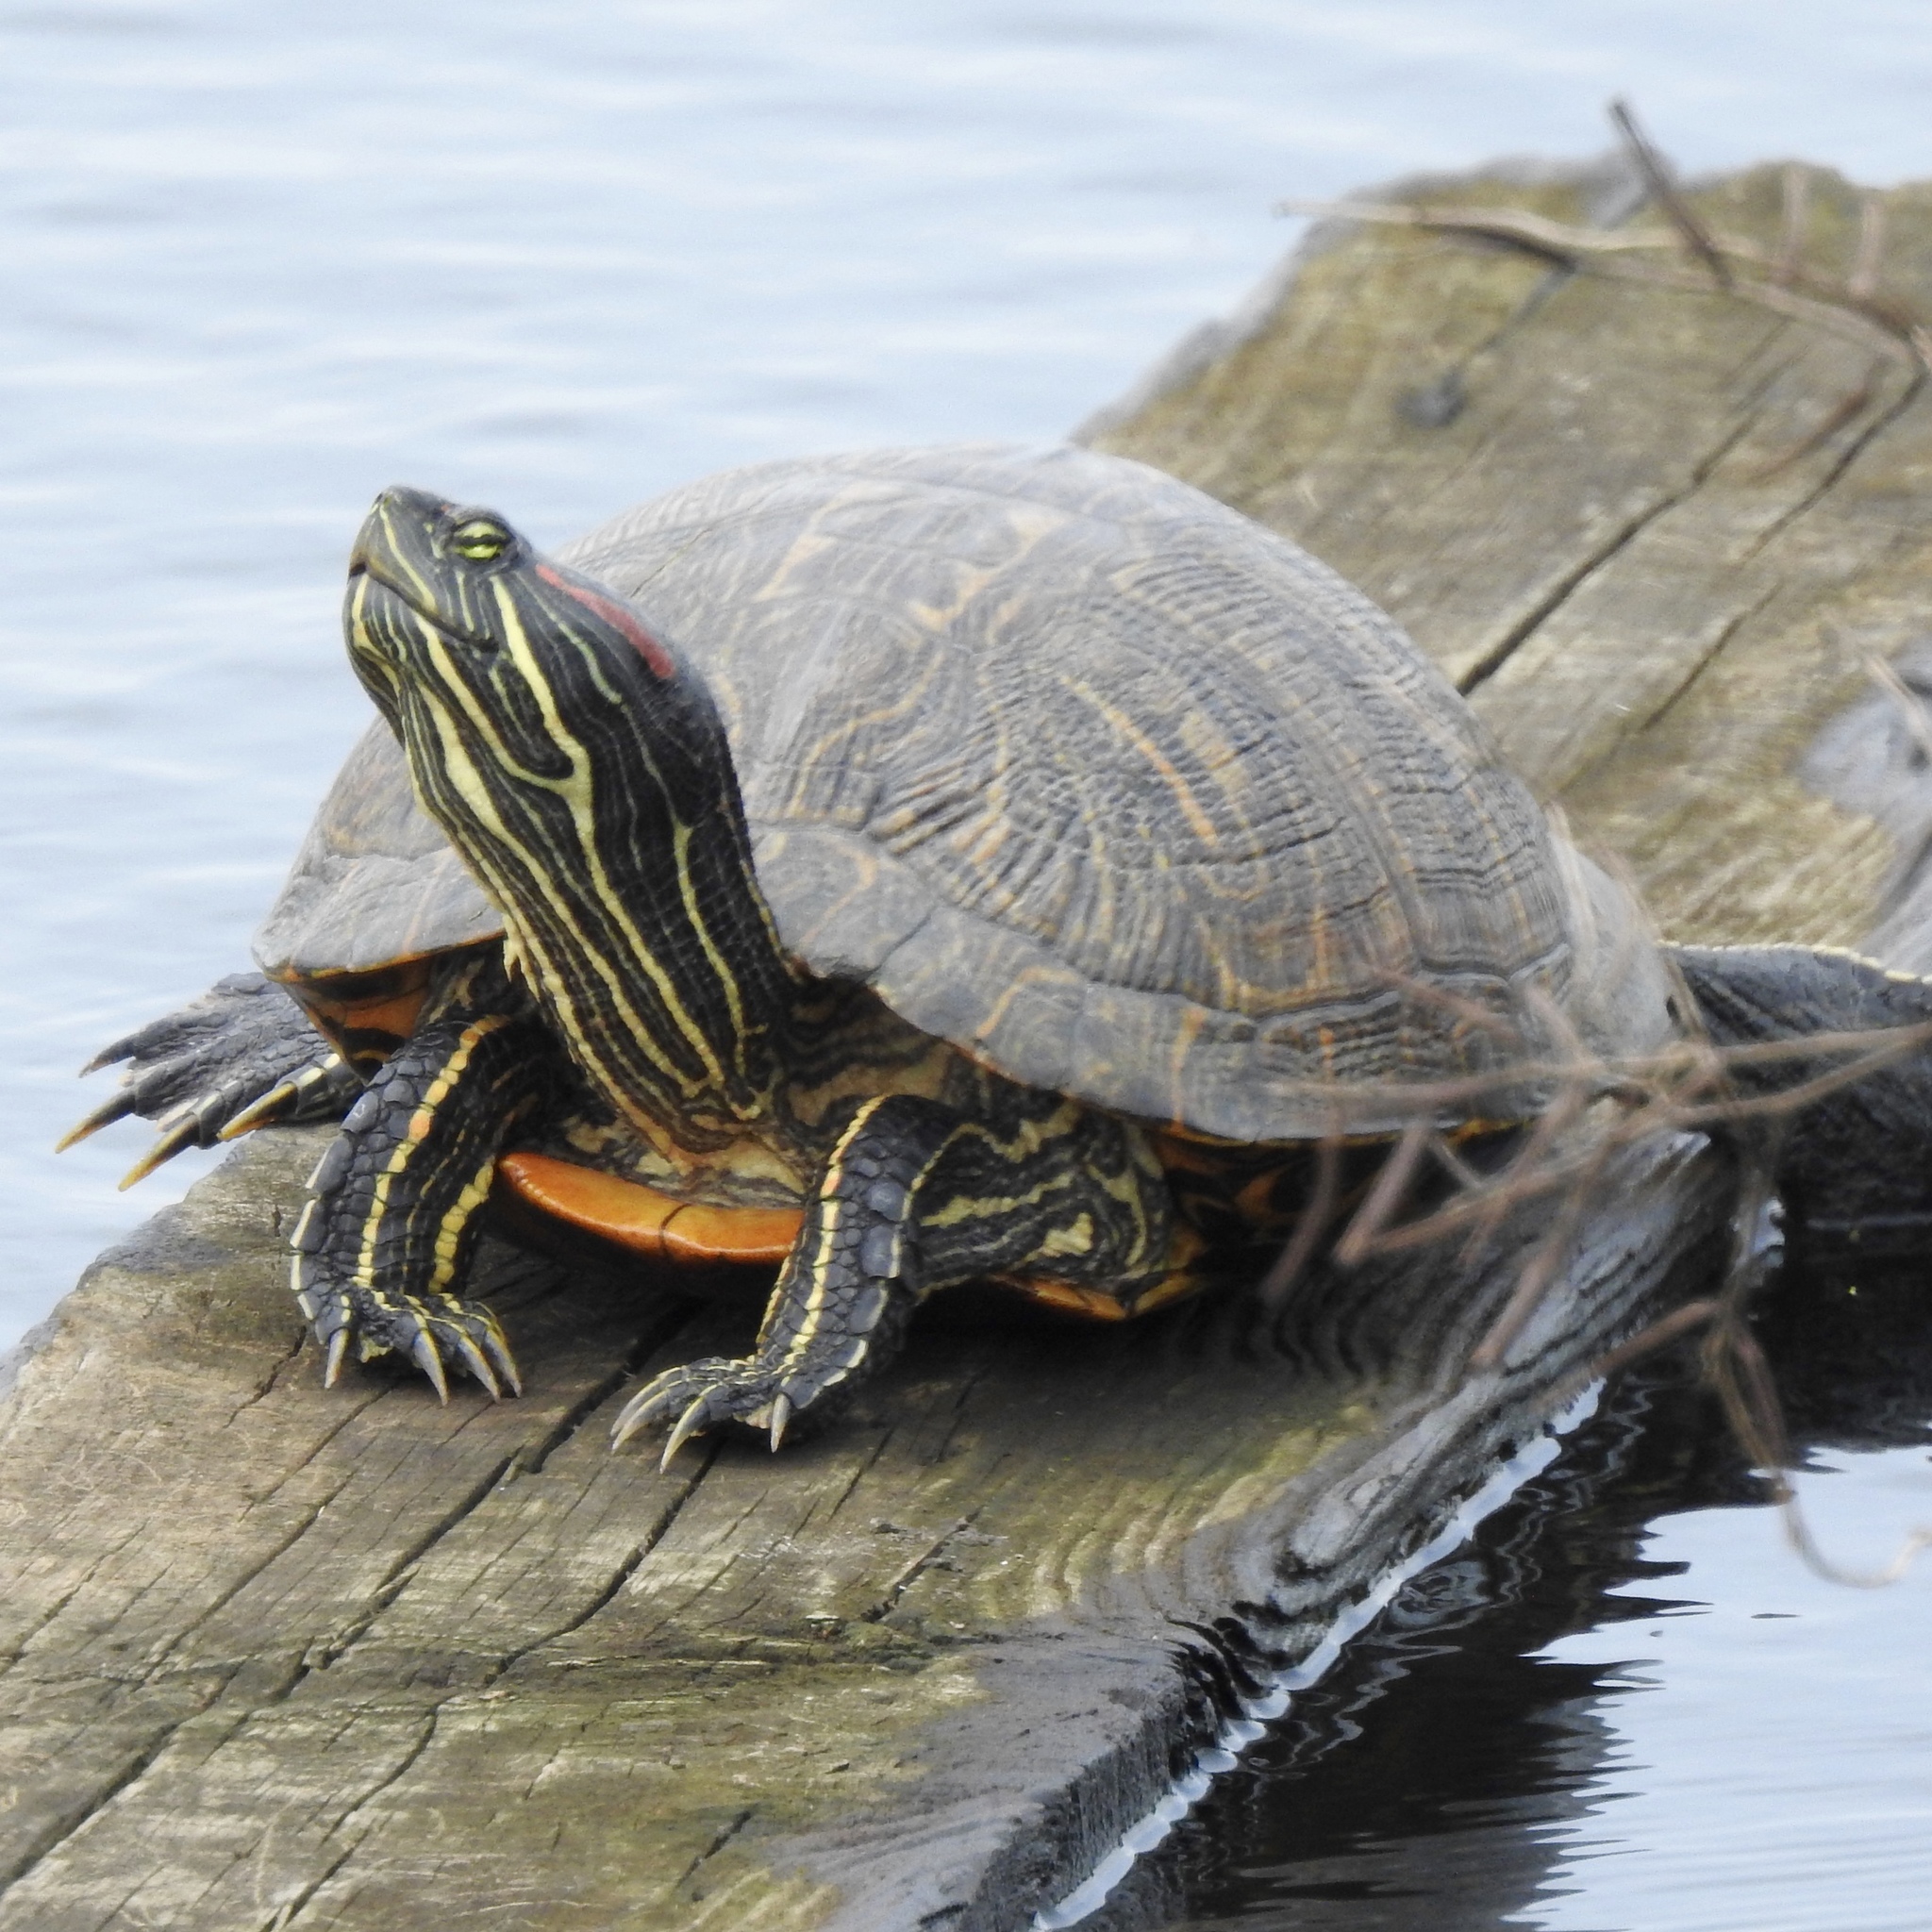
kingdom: Animalia
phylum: Chordata
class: Testudines
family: Emydidae
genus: Trachemys
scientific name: Trachemys scripta
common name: Slider
